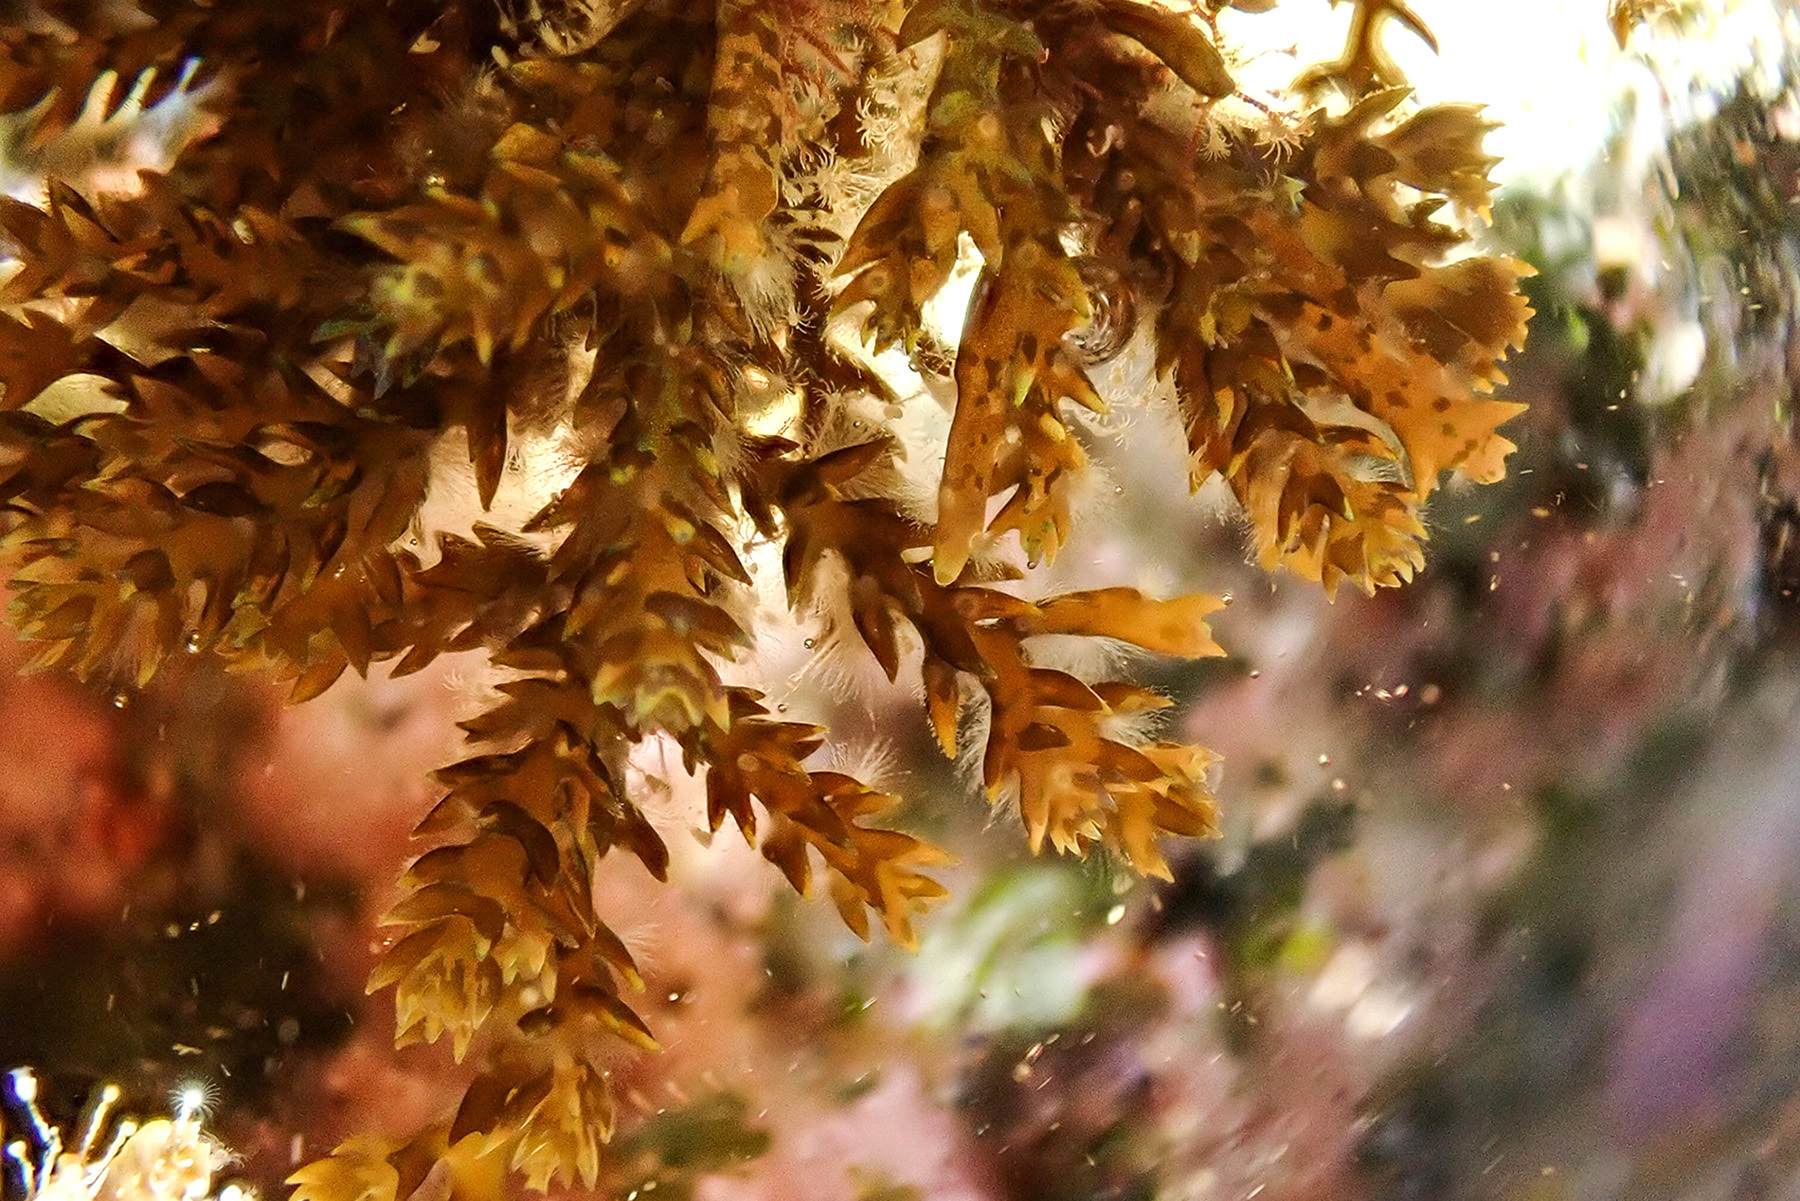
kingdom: Chromista
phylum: Ochrophyta
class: Phaeophyceae
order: Fucales
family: Sargassaceae
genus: Cystoseira
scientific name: Cystoseira Ericaria amentacea
